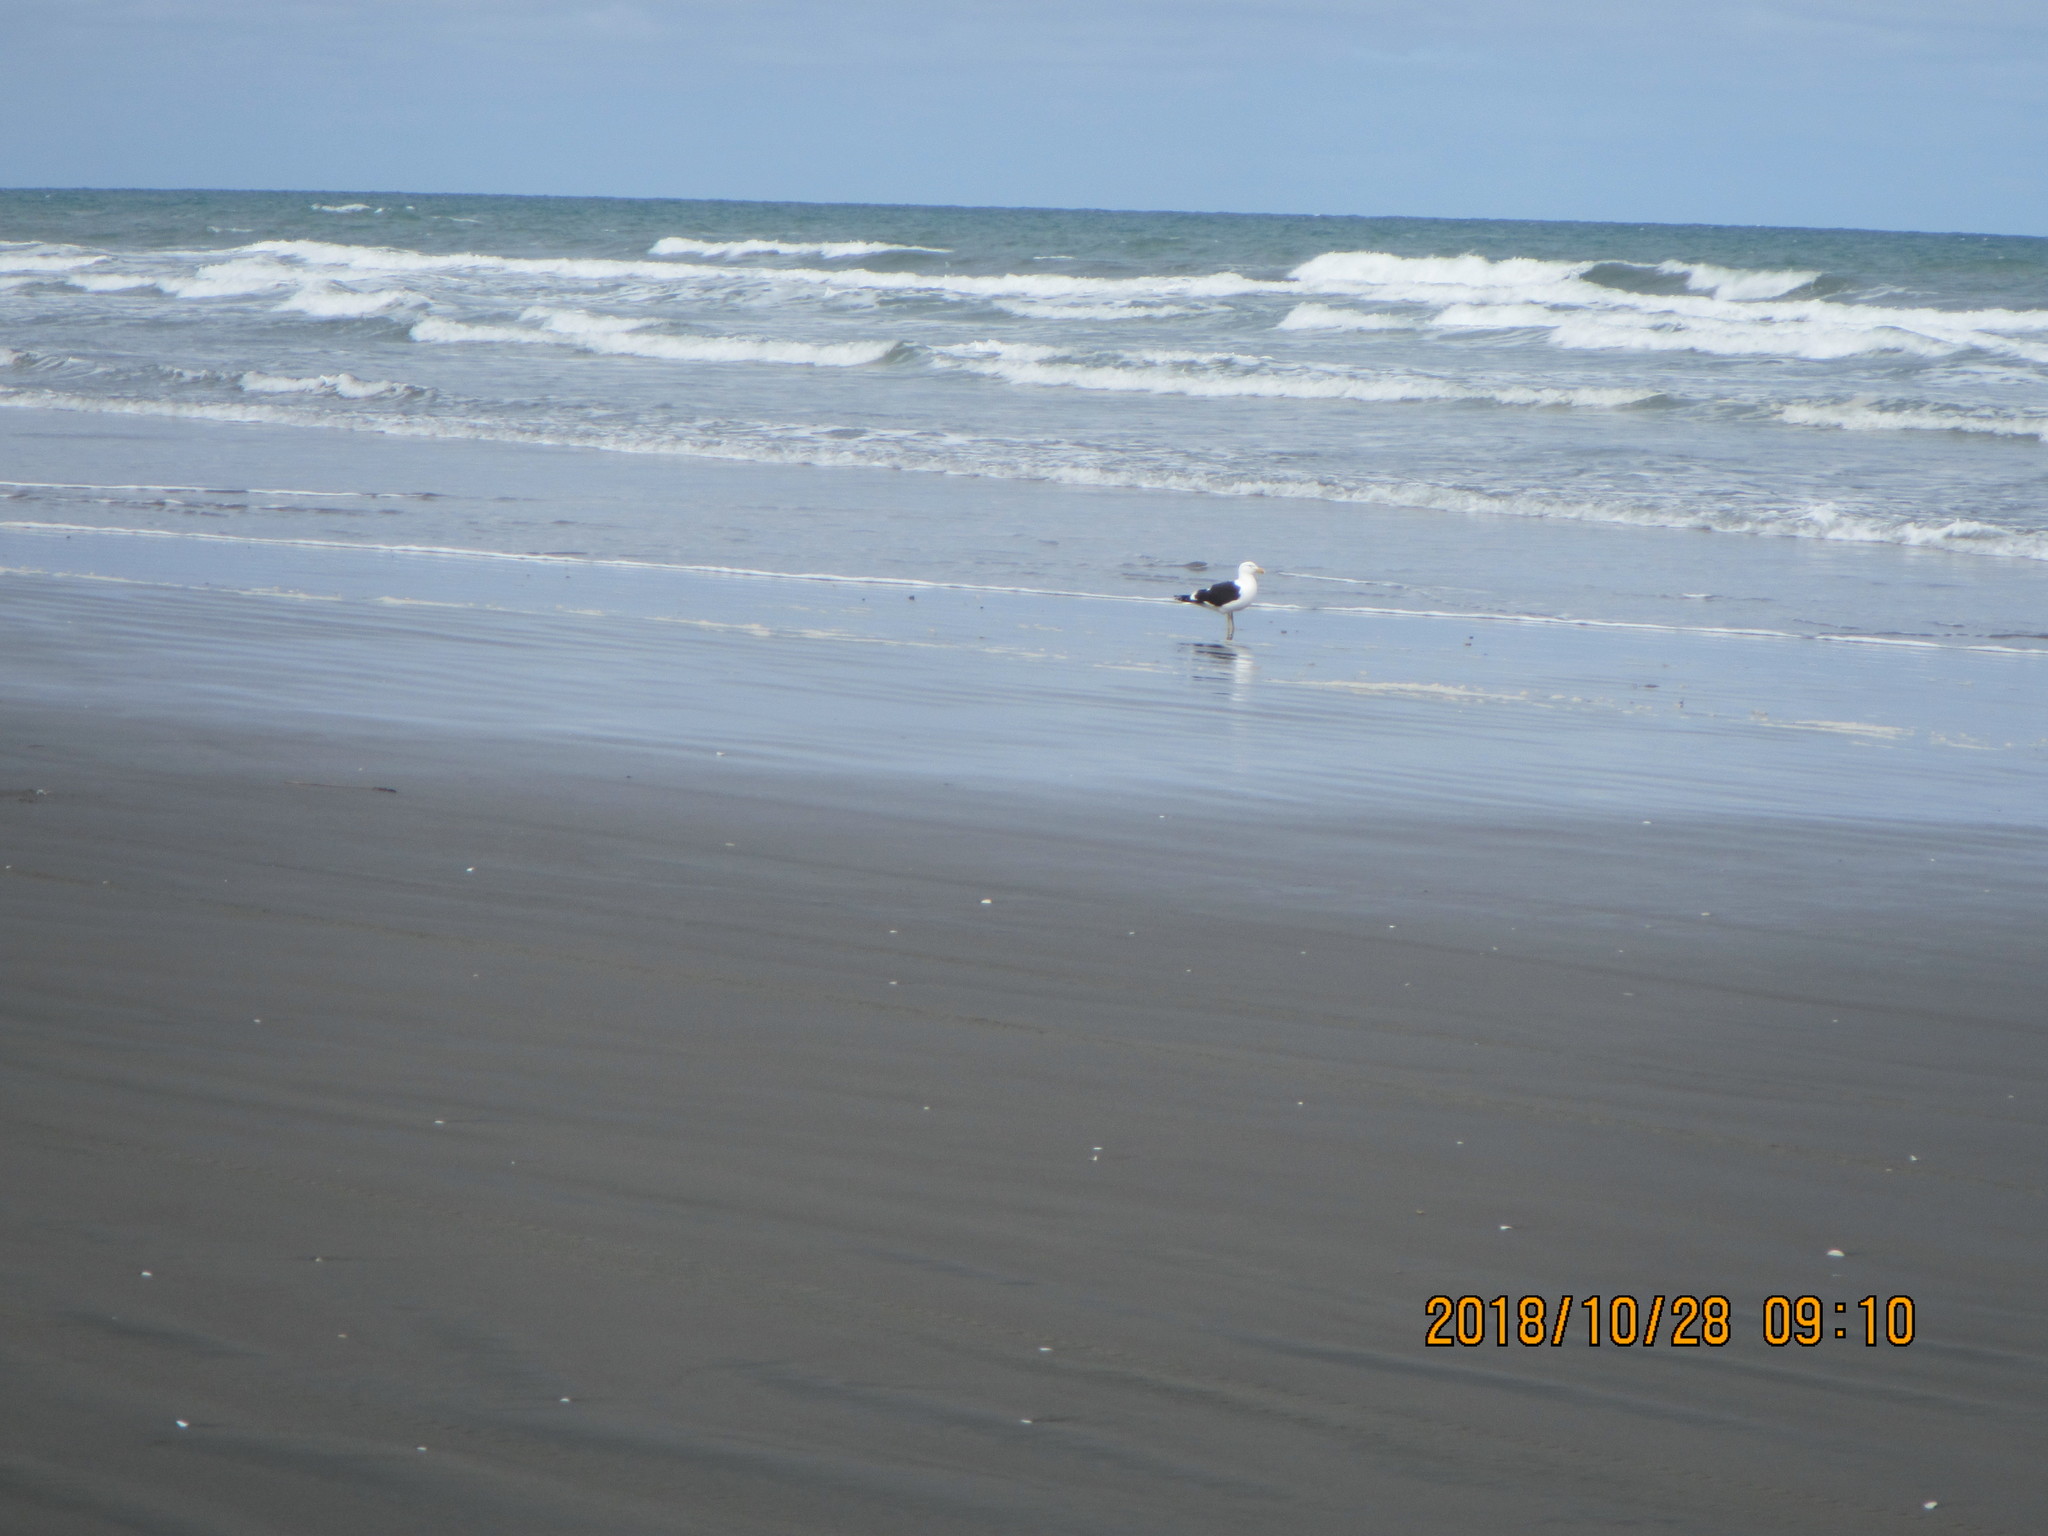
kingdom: Animalia
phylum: Chordata
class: Aves
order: Charadriiformes
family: Laridae
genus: Larus
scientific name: Larus dominicanus
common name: Kelp gull
